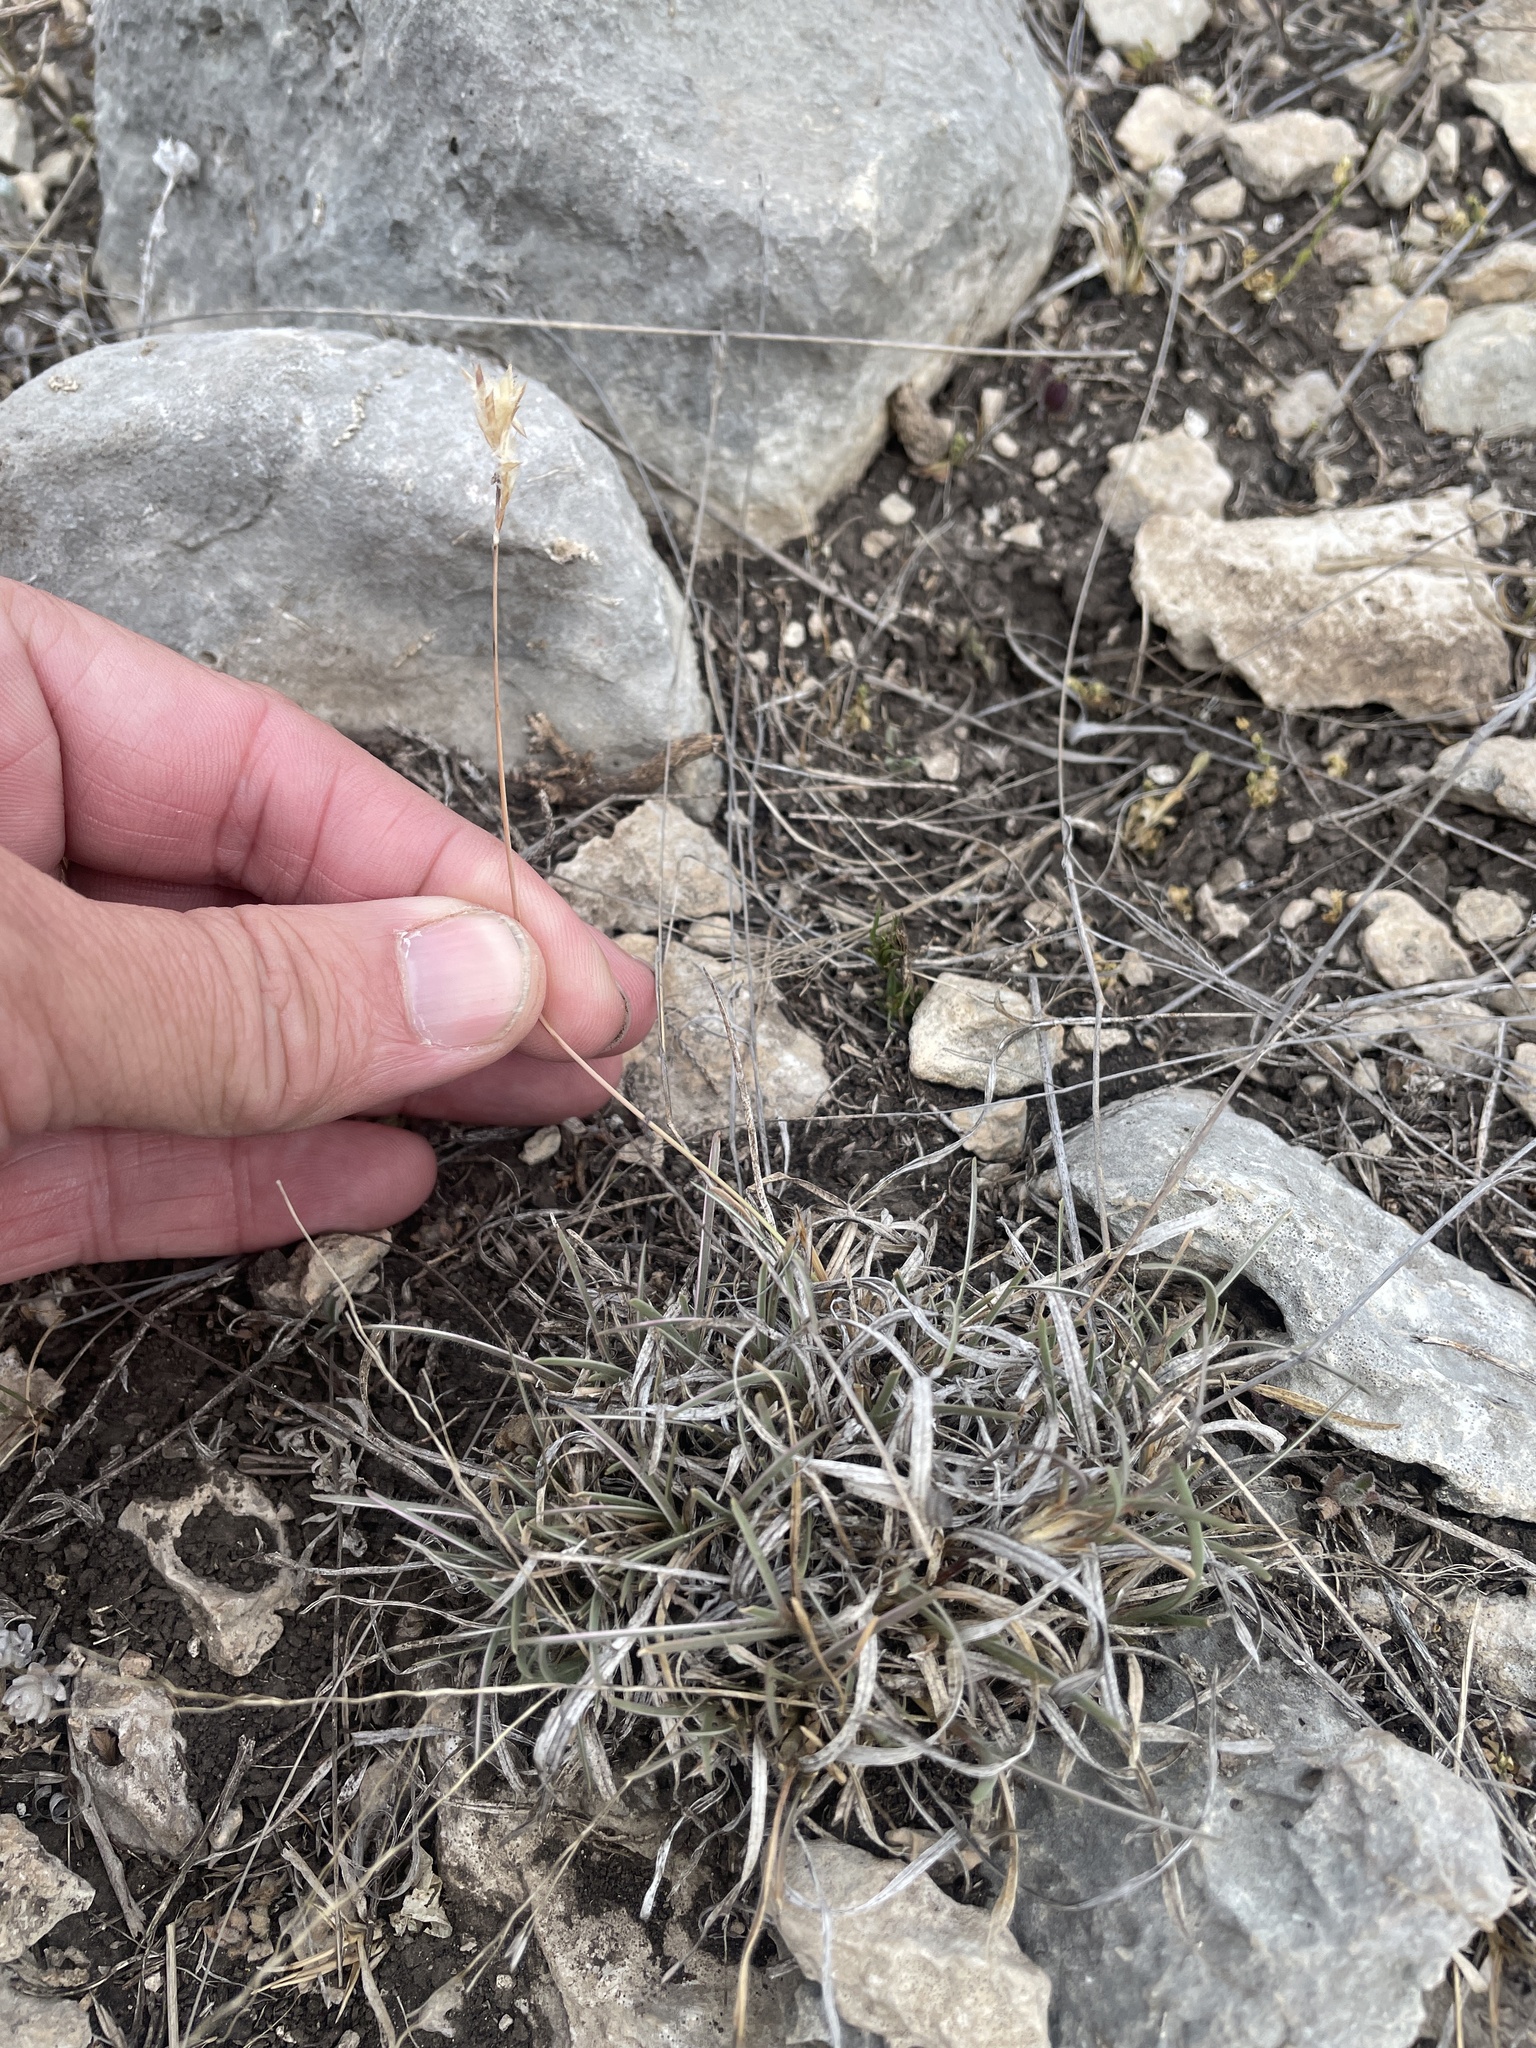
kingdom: Plantae
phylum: Tracheophyta
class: Liliopsida
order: Poales
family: Poaceae
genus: Erioneuron
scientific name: Erioneuron pilosum
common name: Hairy woolly grass
